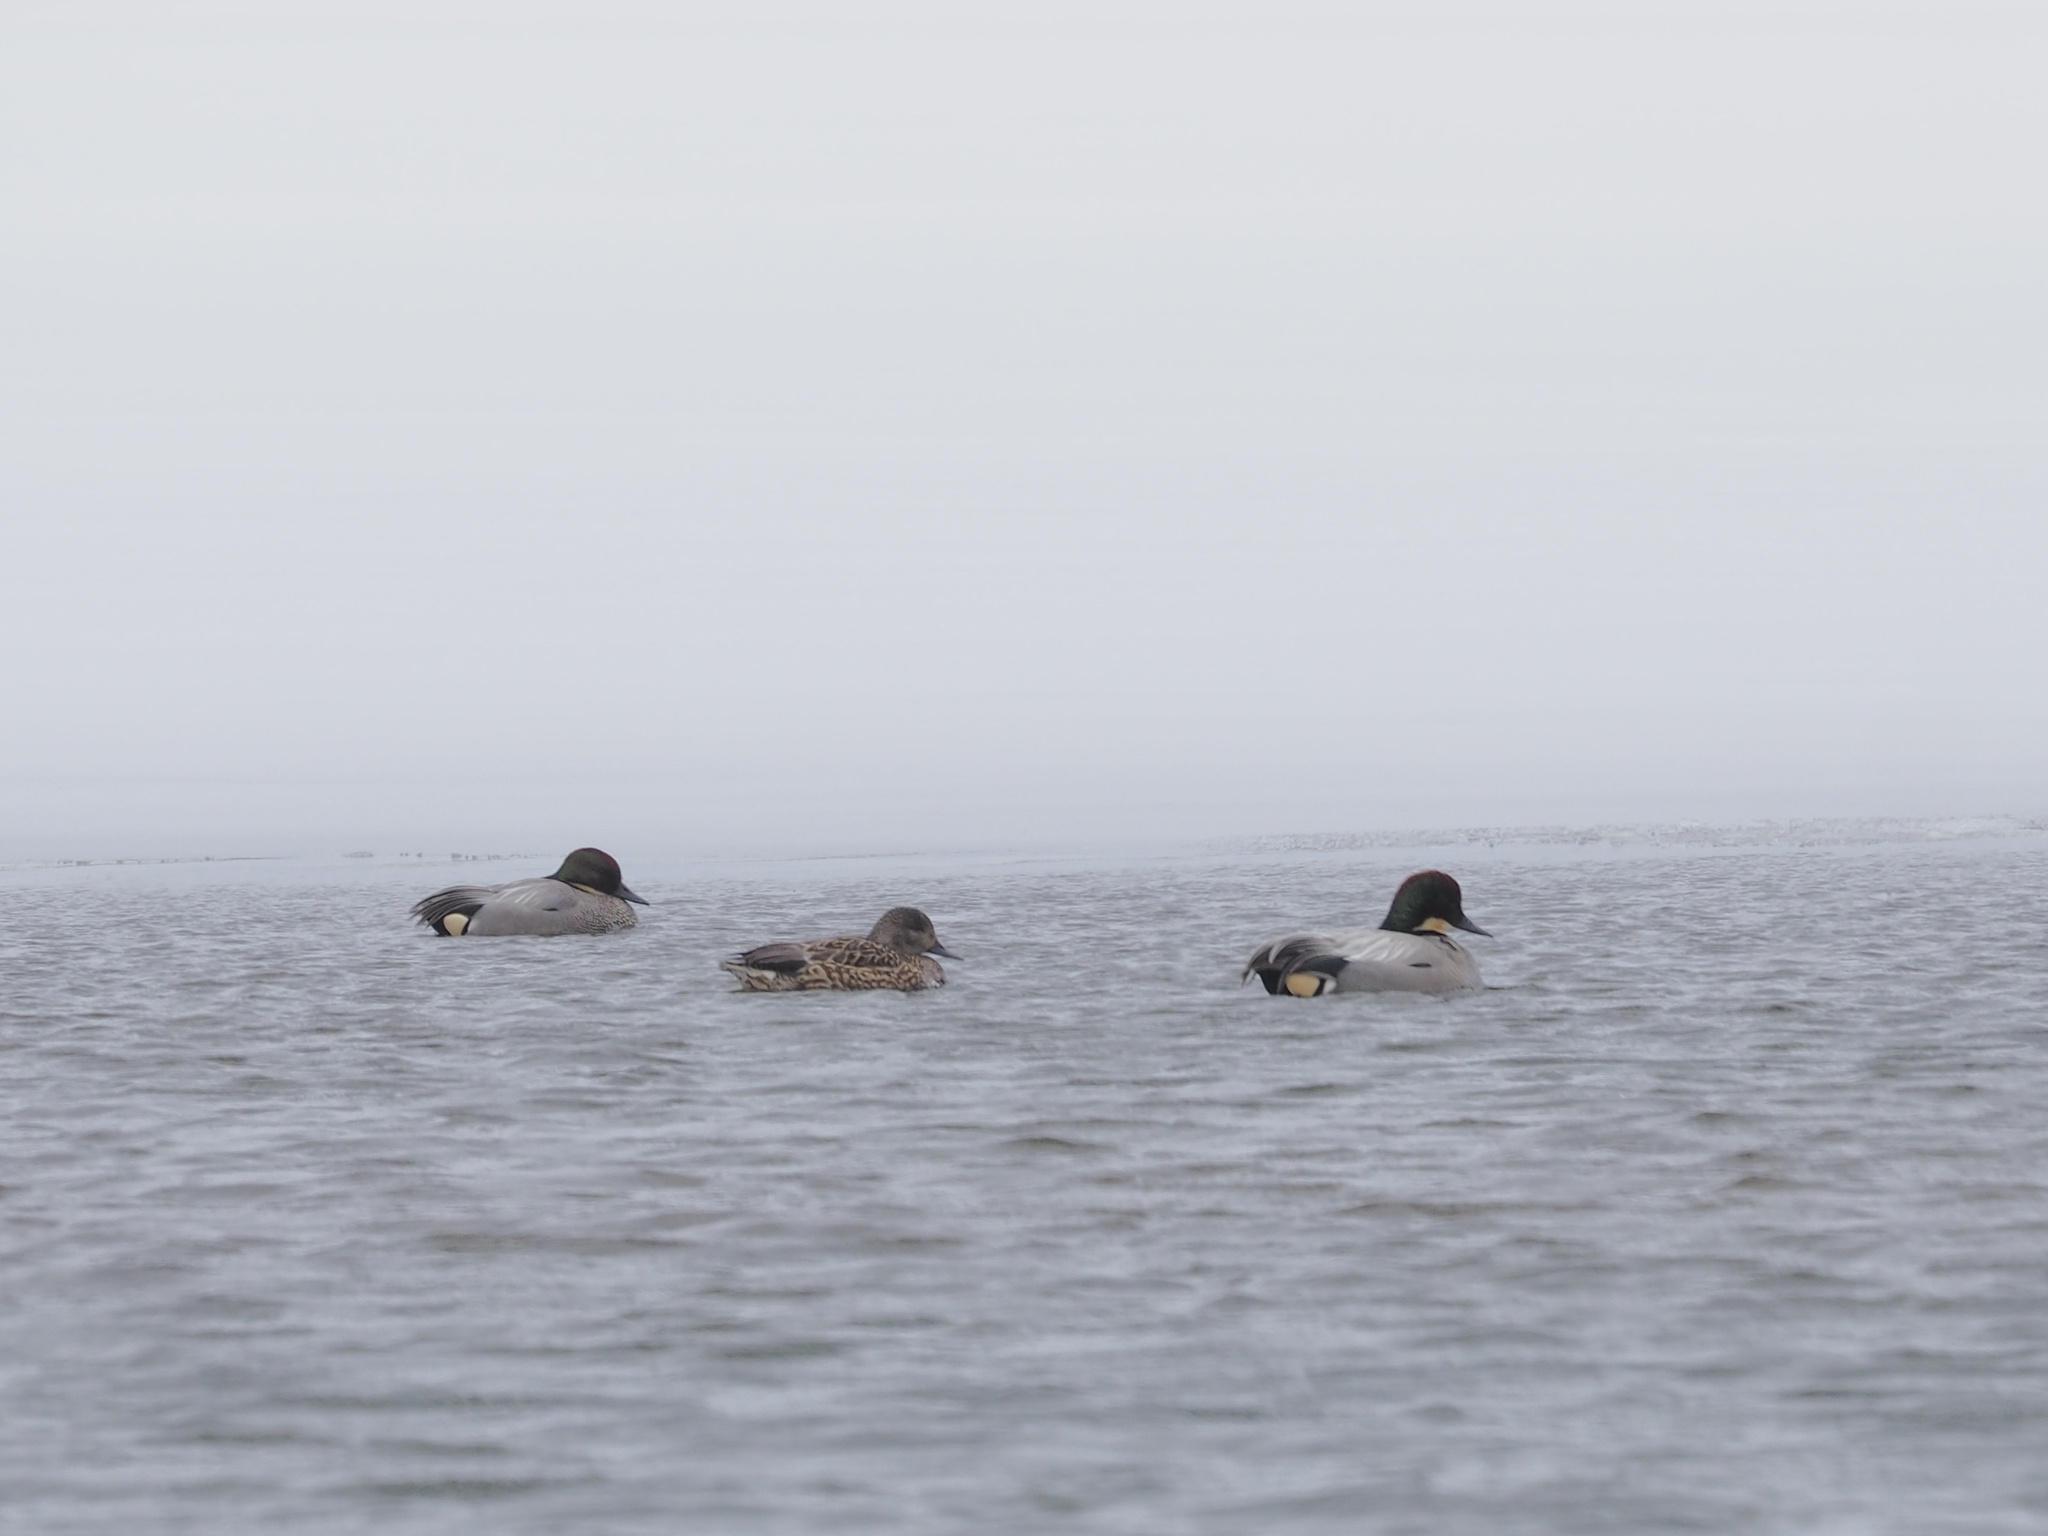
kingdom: Animalia
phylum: Chordata
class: Aves
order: Anseriformes
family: Anatidae
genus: Mareca
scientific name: Mareca falcata
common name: Falcated duck
